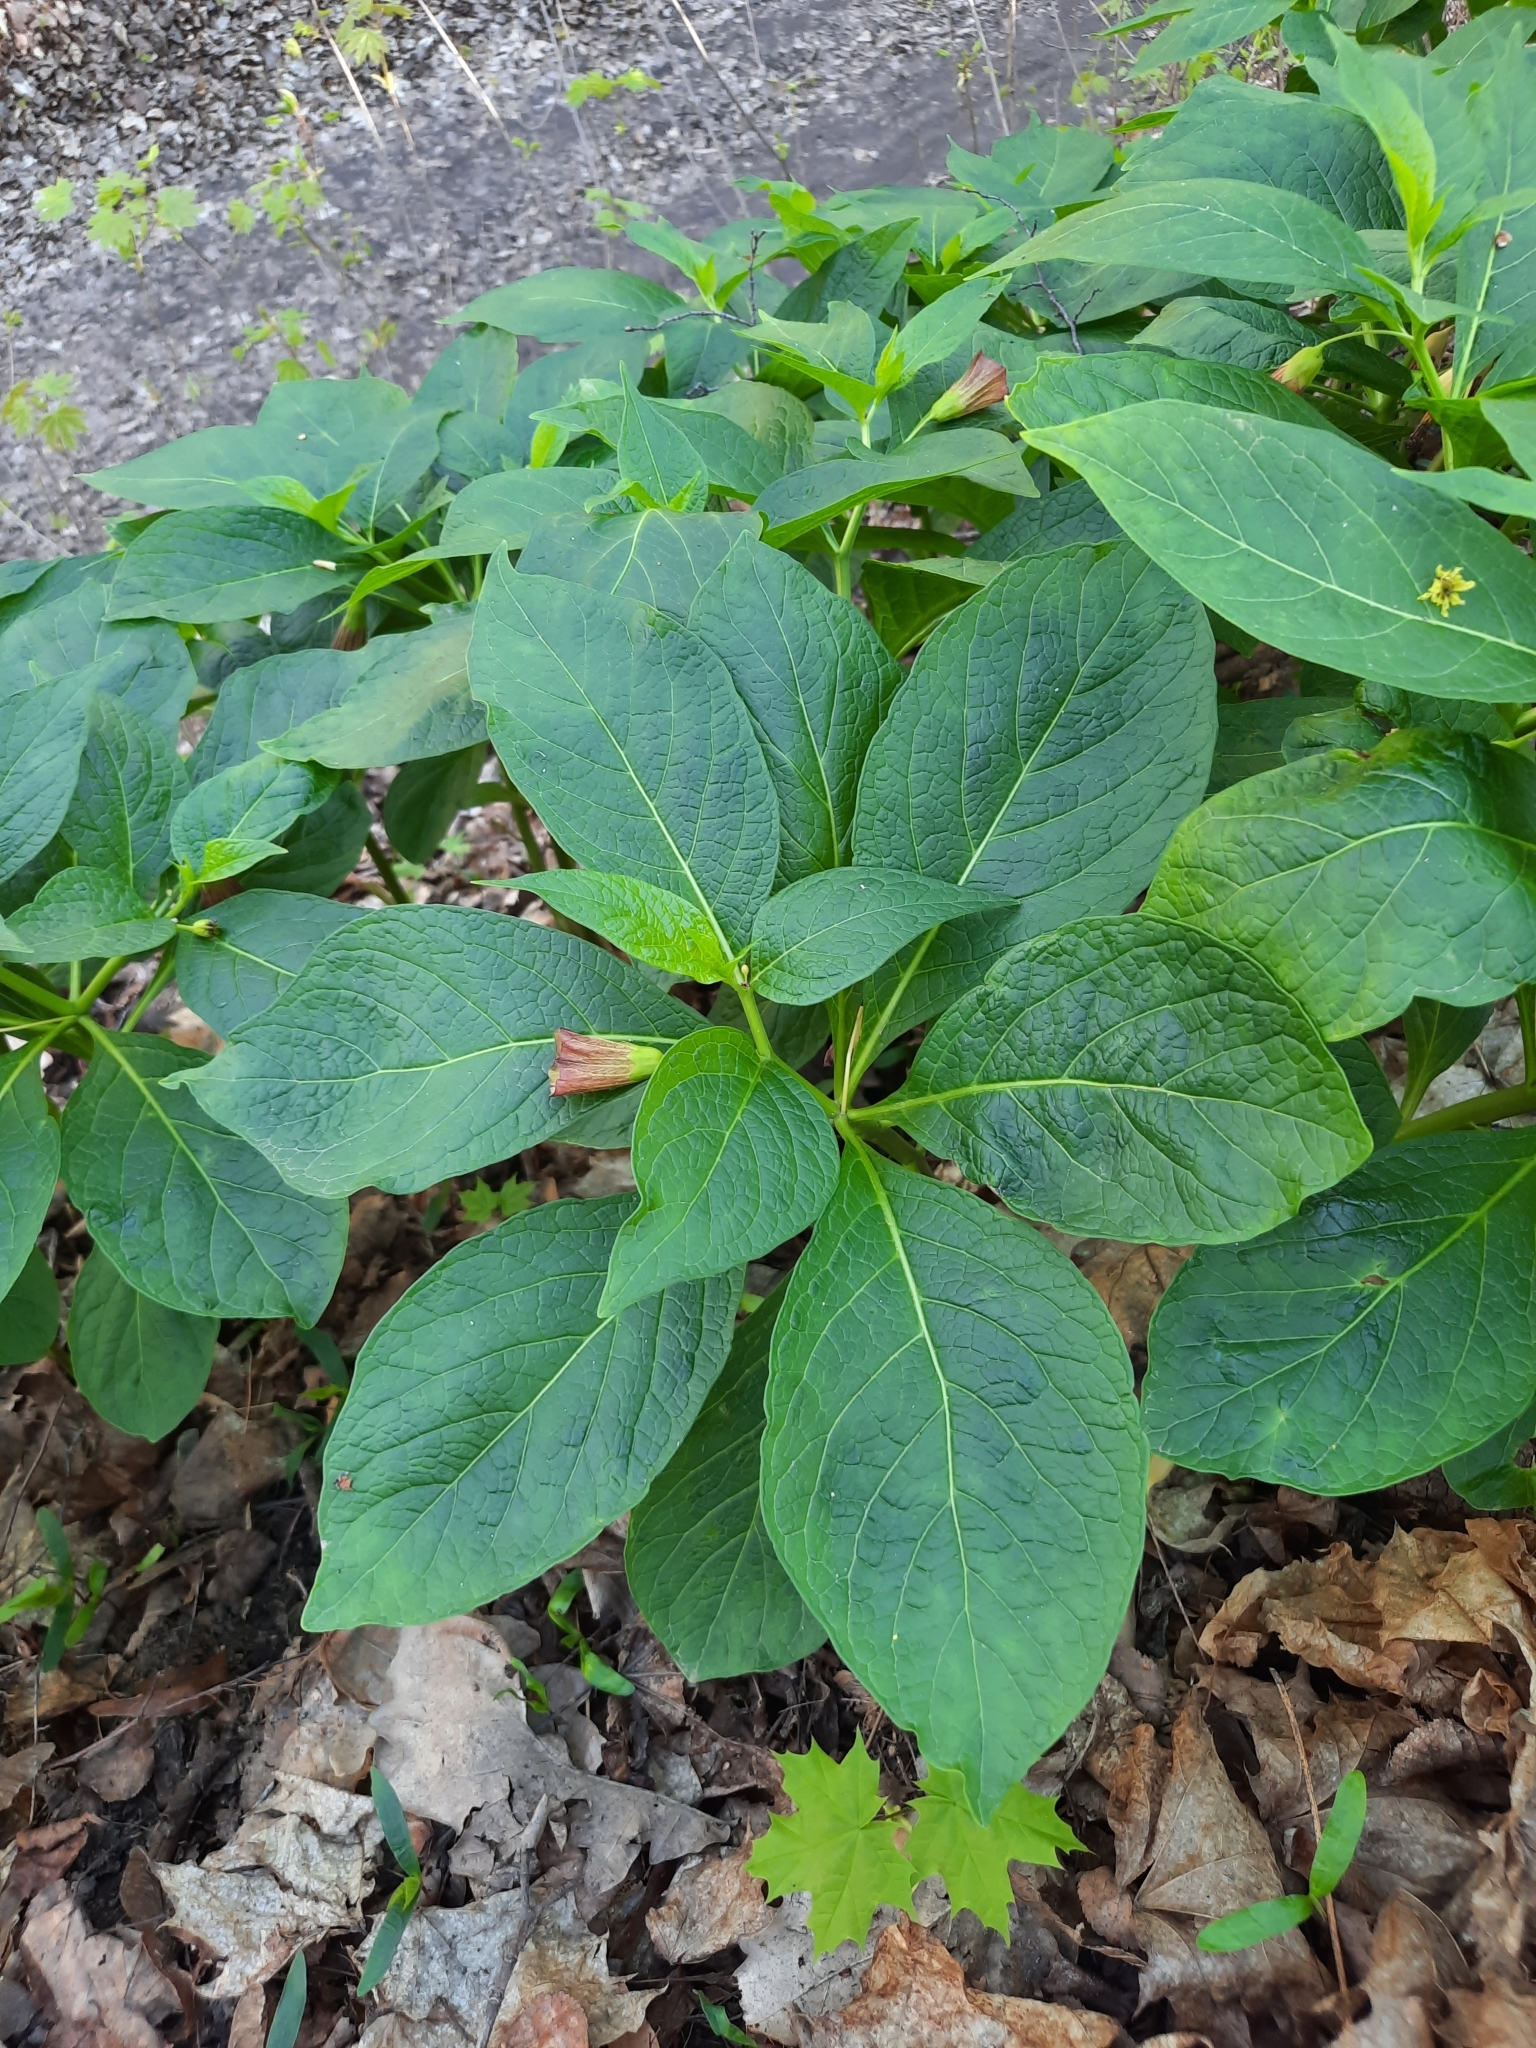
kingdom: Plantae
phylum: Tracheophyta
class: Magnoliopsida
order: Solanales
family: Solanaceae
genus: Scopolia
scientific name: Scopolia carniolica
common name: Scopolia
